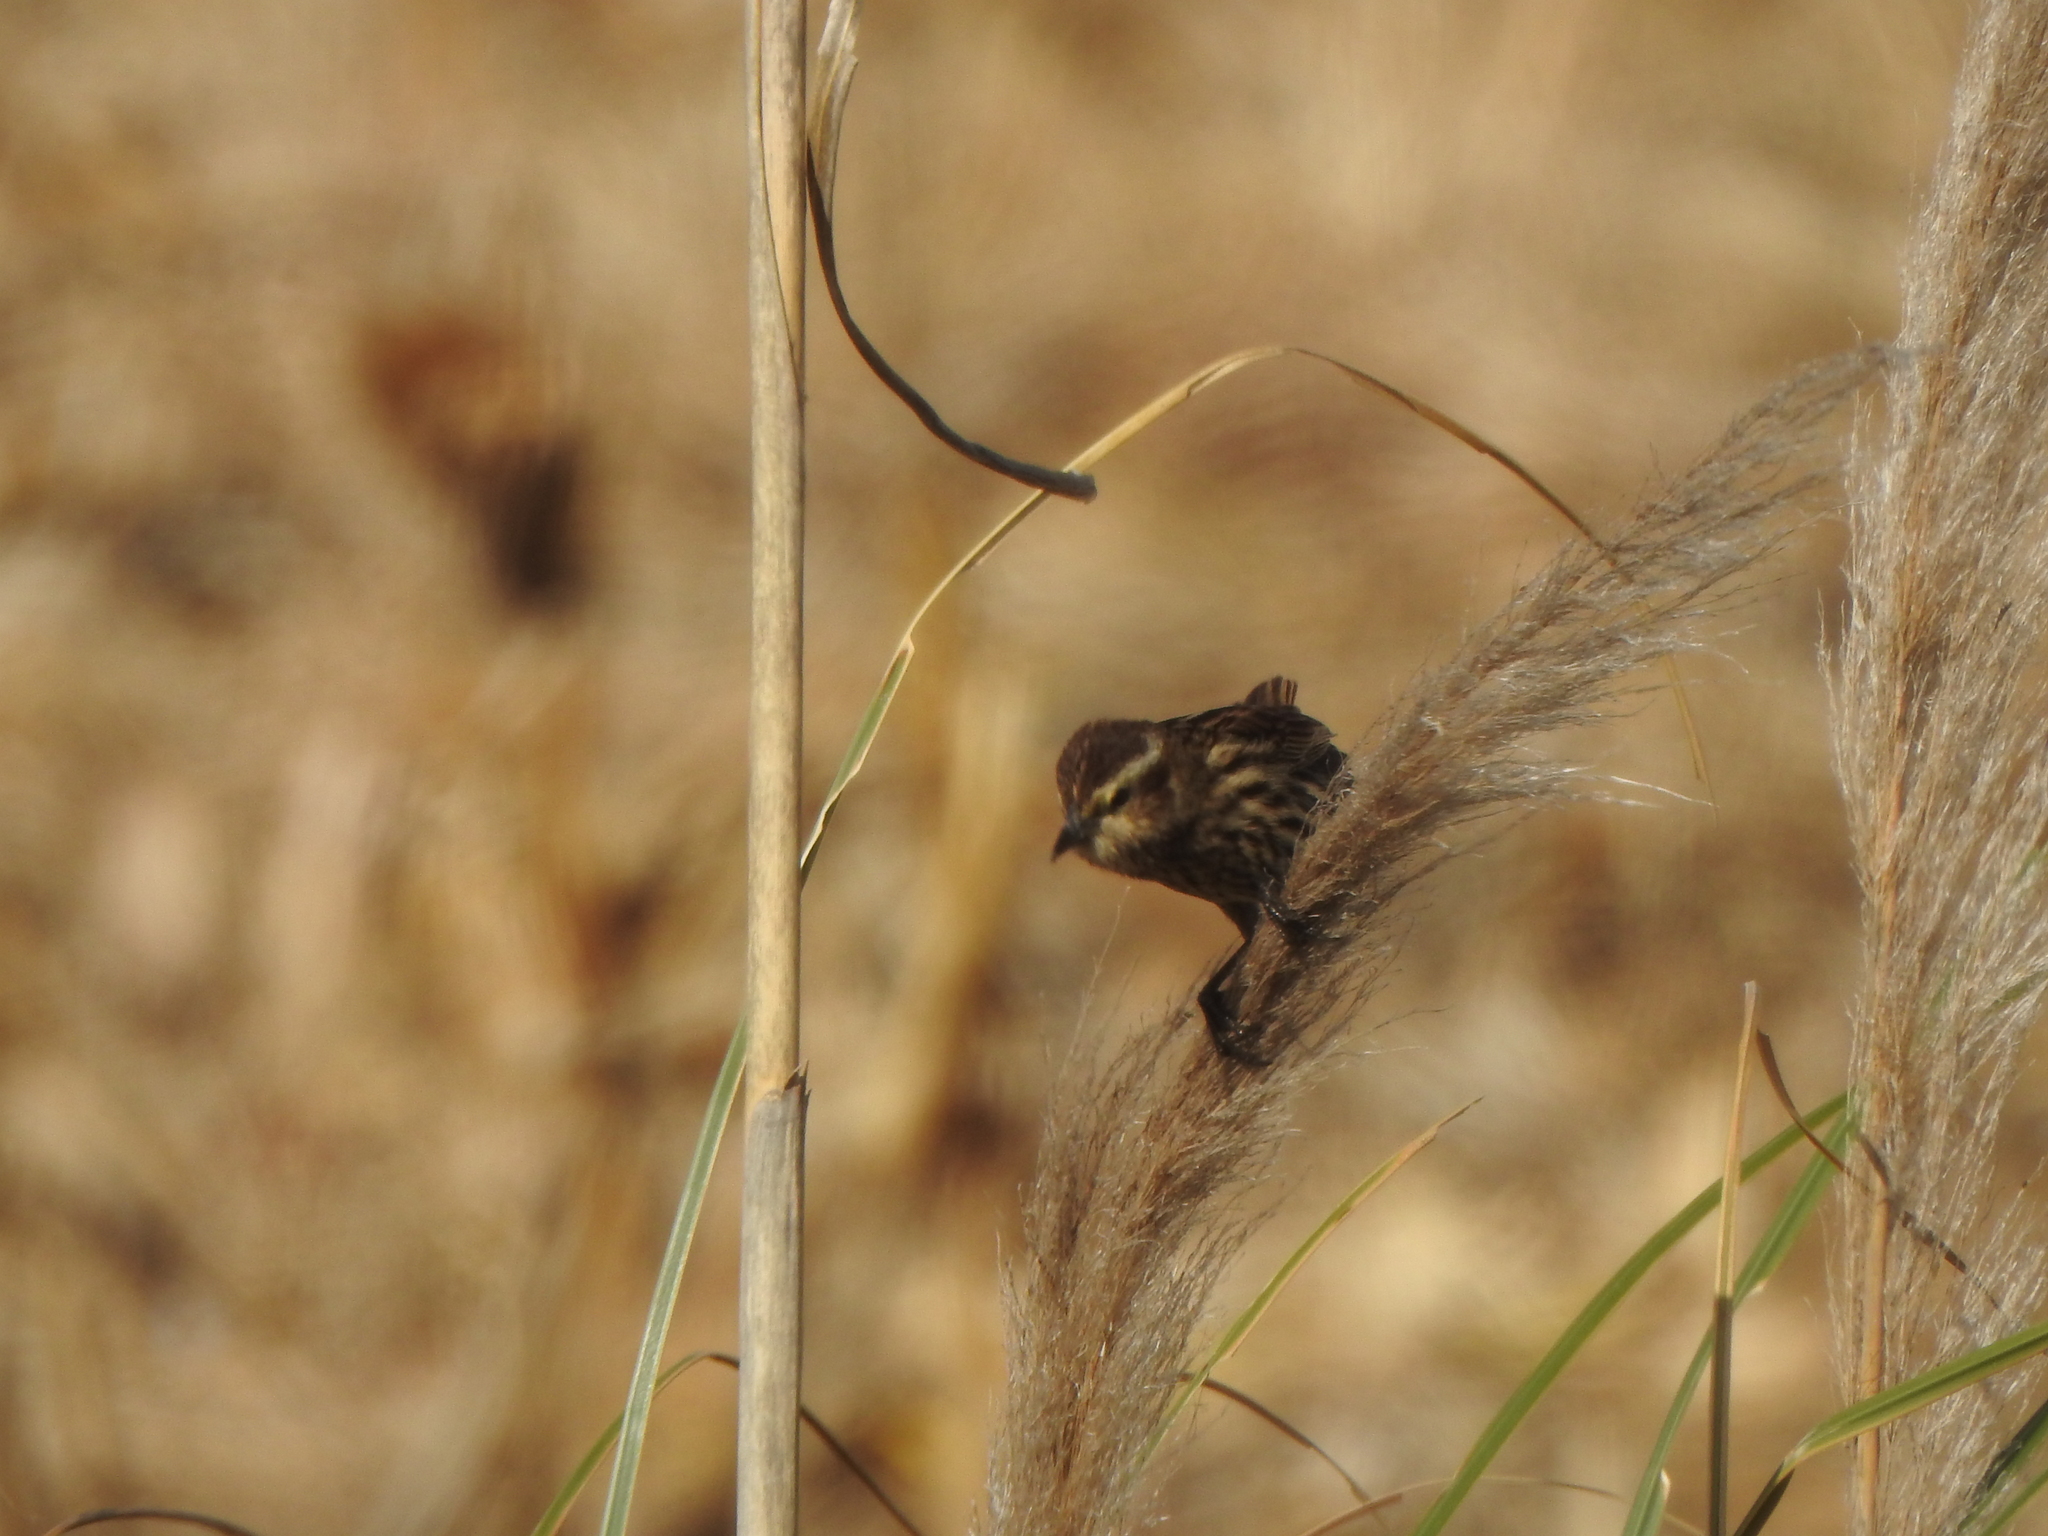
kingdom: Animalia
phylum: Chordata
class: Aves
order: Passeriformes
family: Icteridae
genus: Agelasticus
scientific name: Agelasticus thilius
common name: Yellow-winged blackbird
